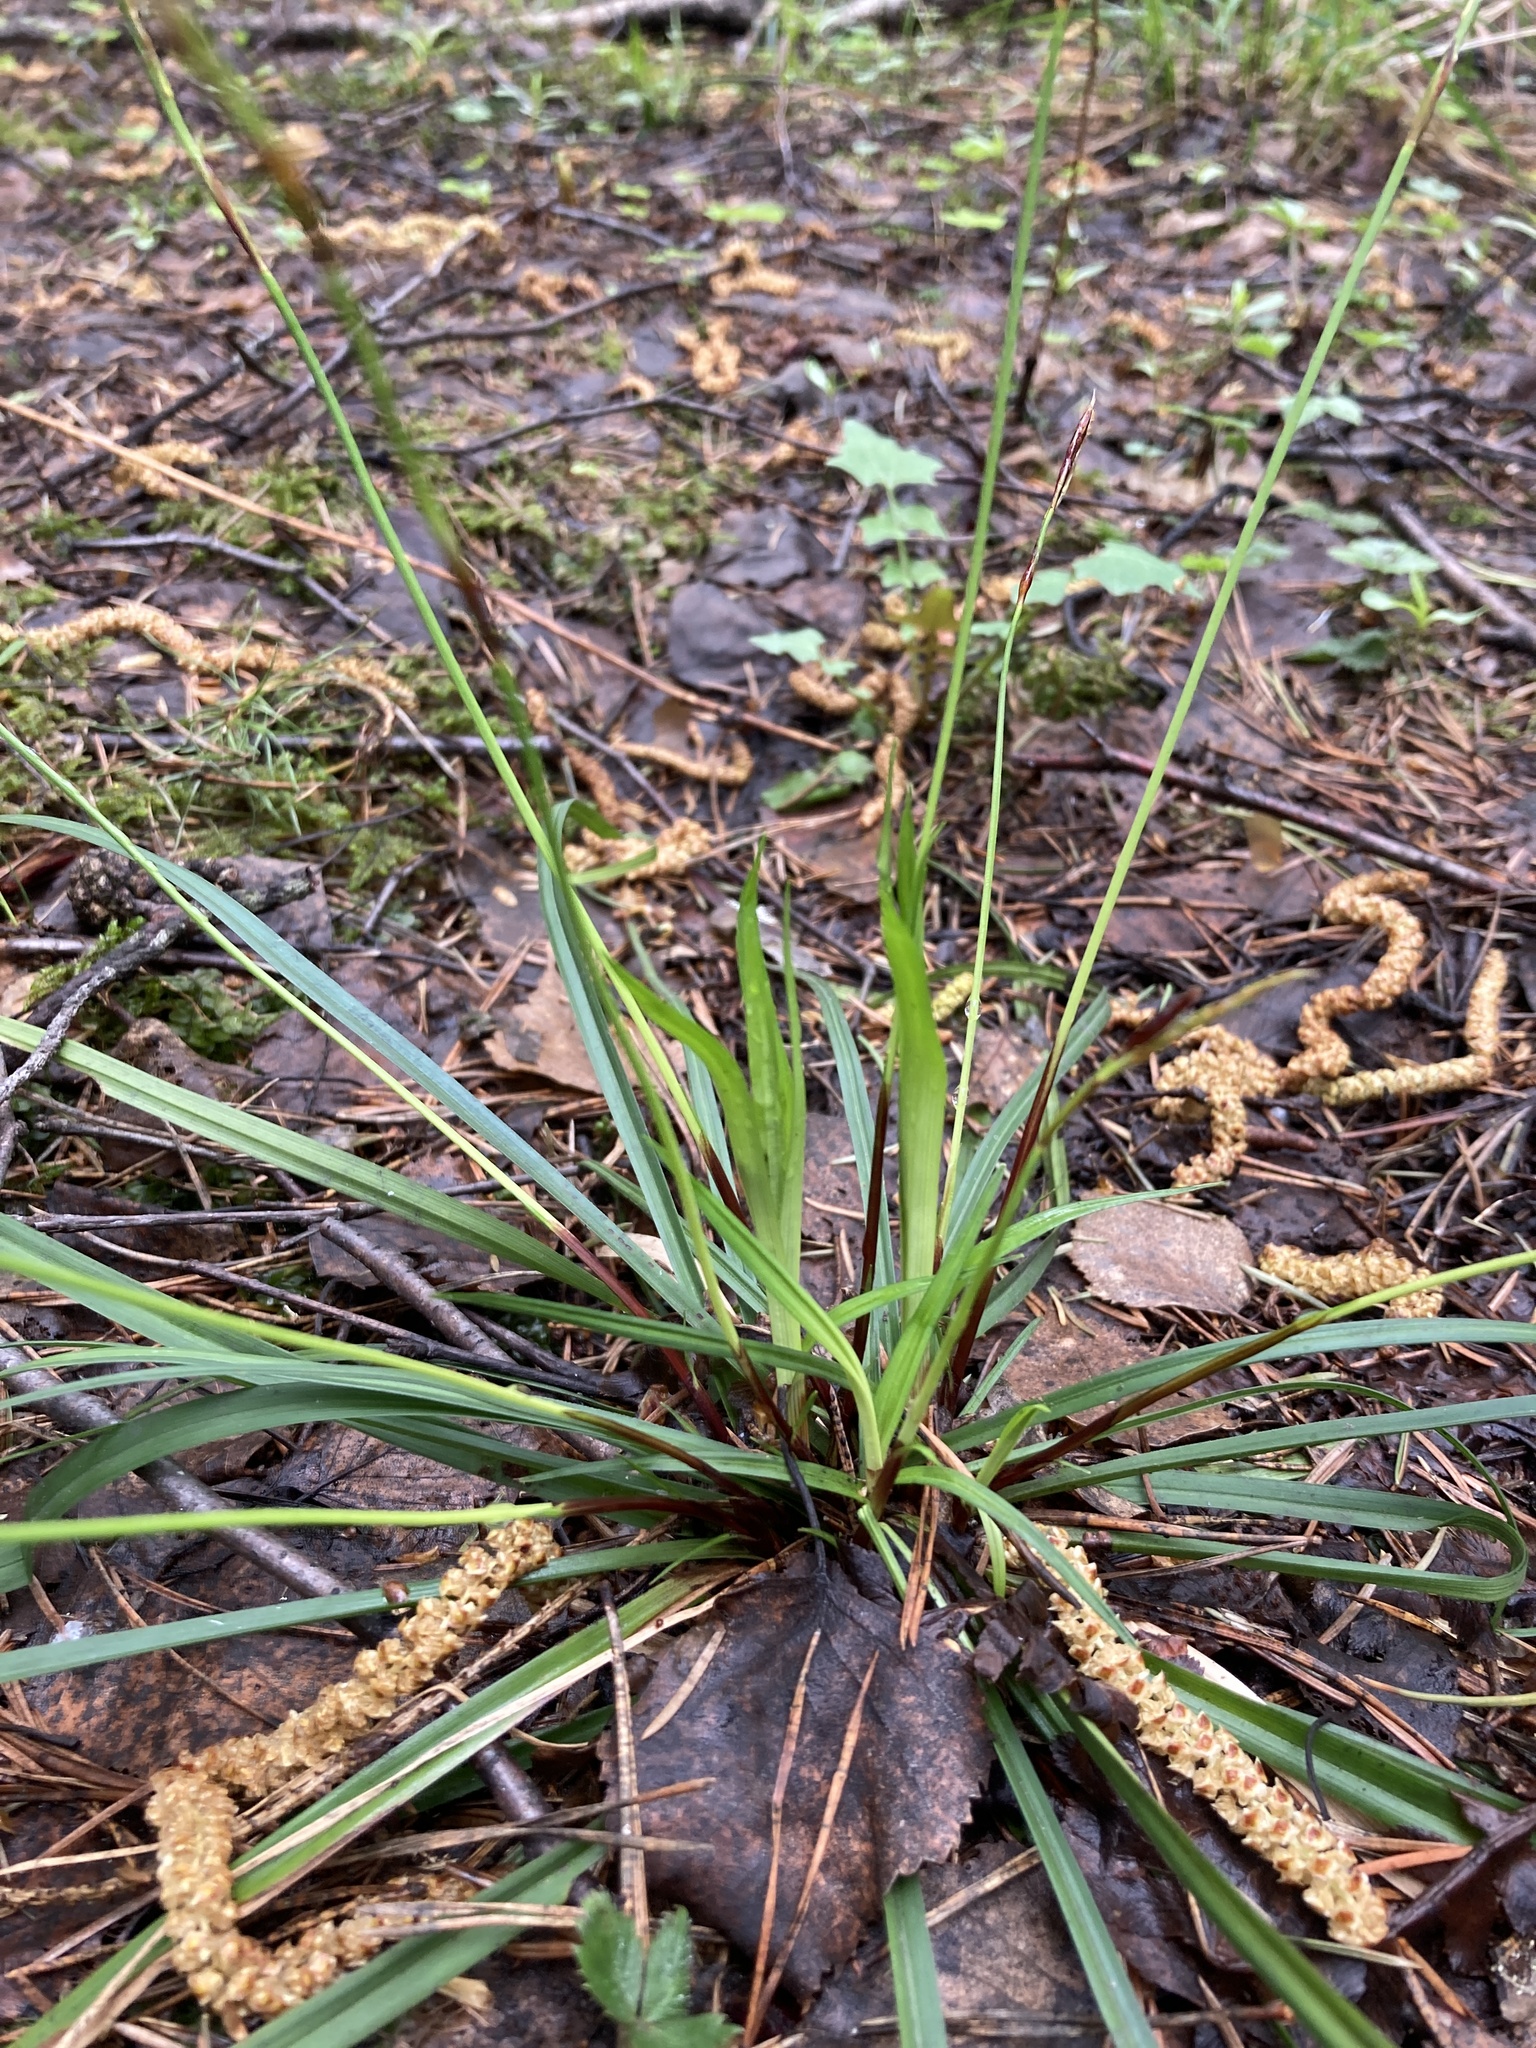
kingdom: Plantae
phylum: Tracheophyta
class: Liliopsida
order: Poales
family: Cyperaceae
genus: Carex
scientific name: Carex digitata
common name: Fingered sedge
